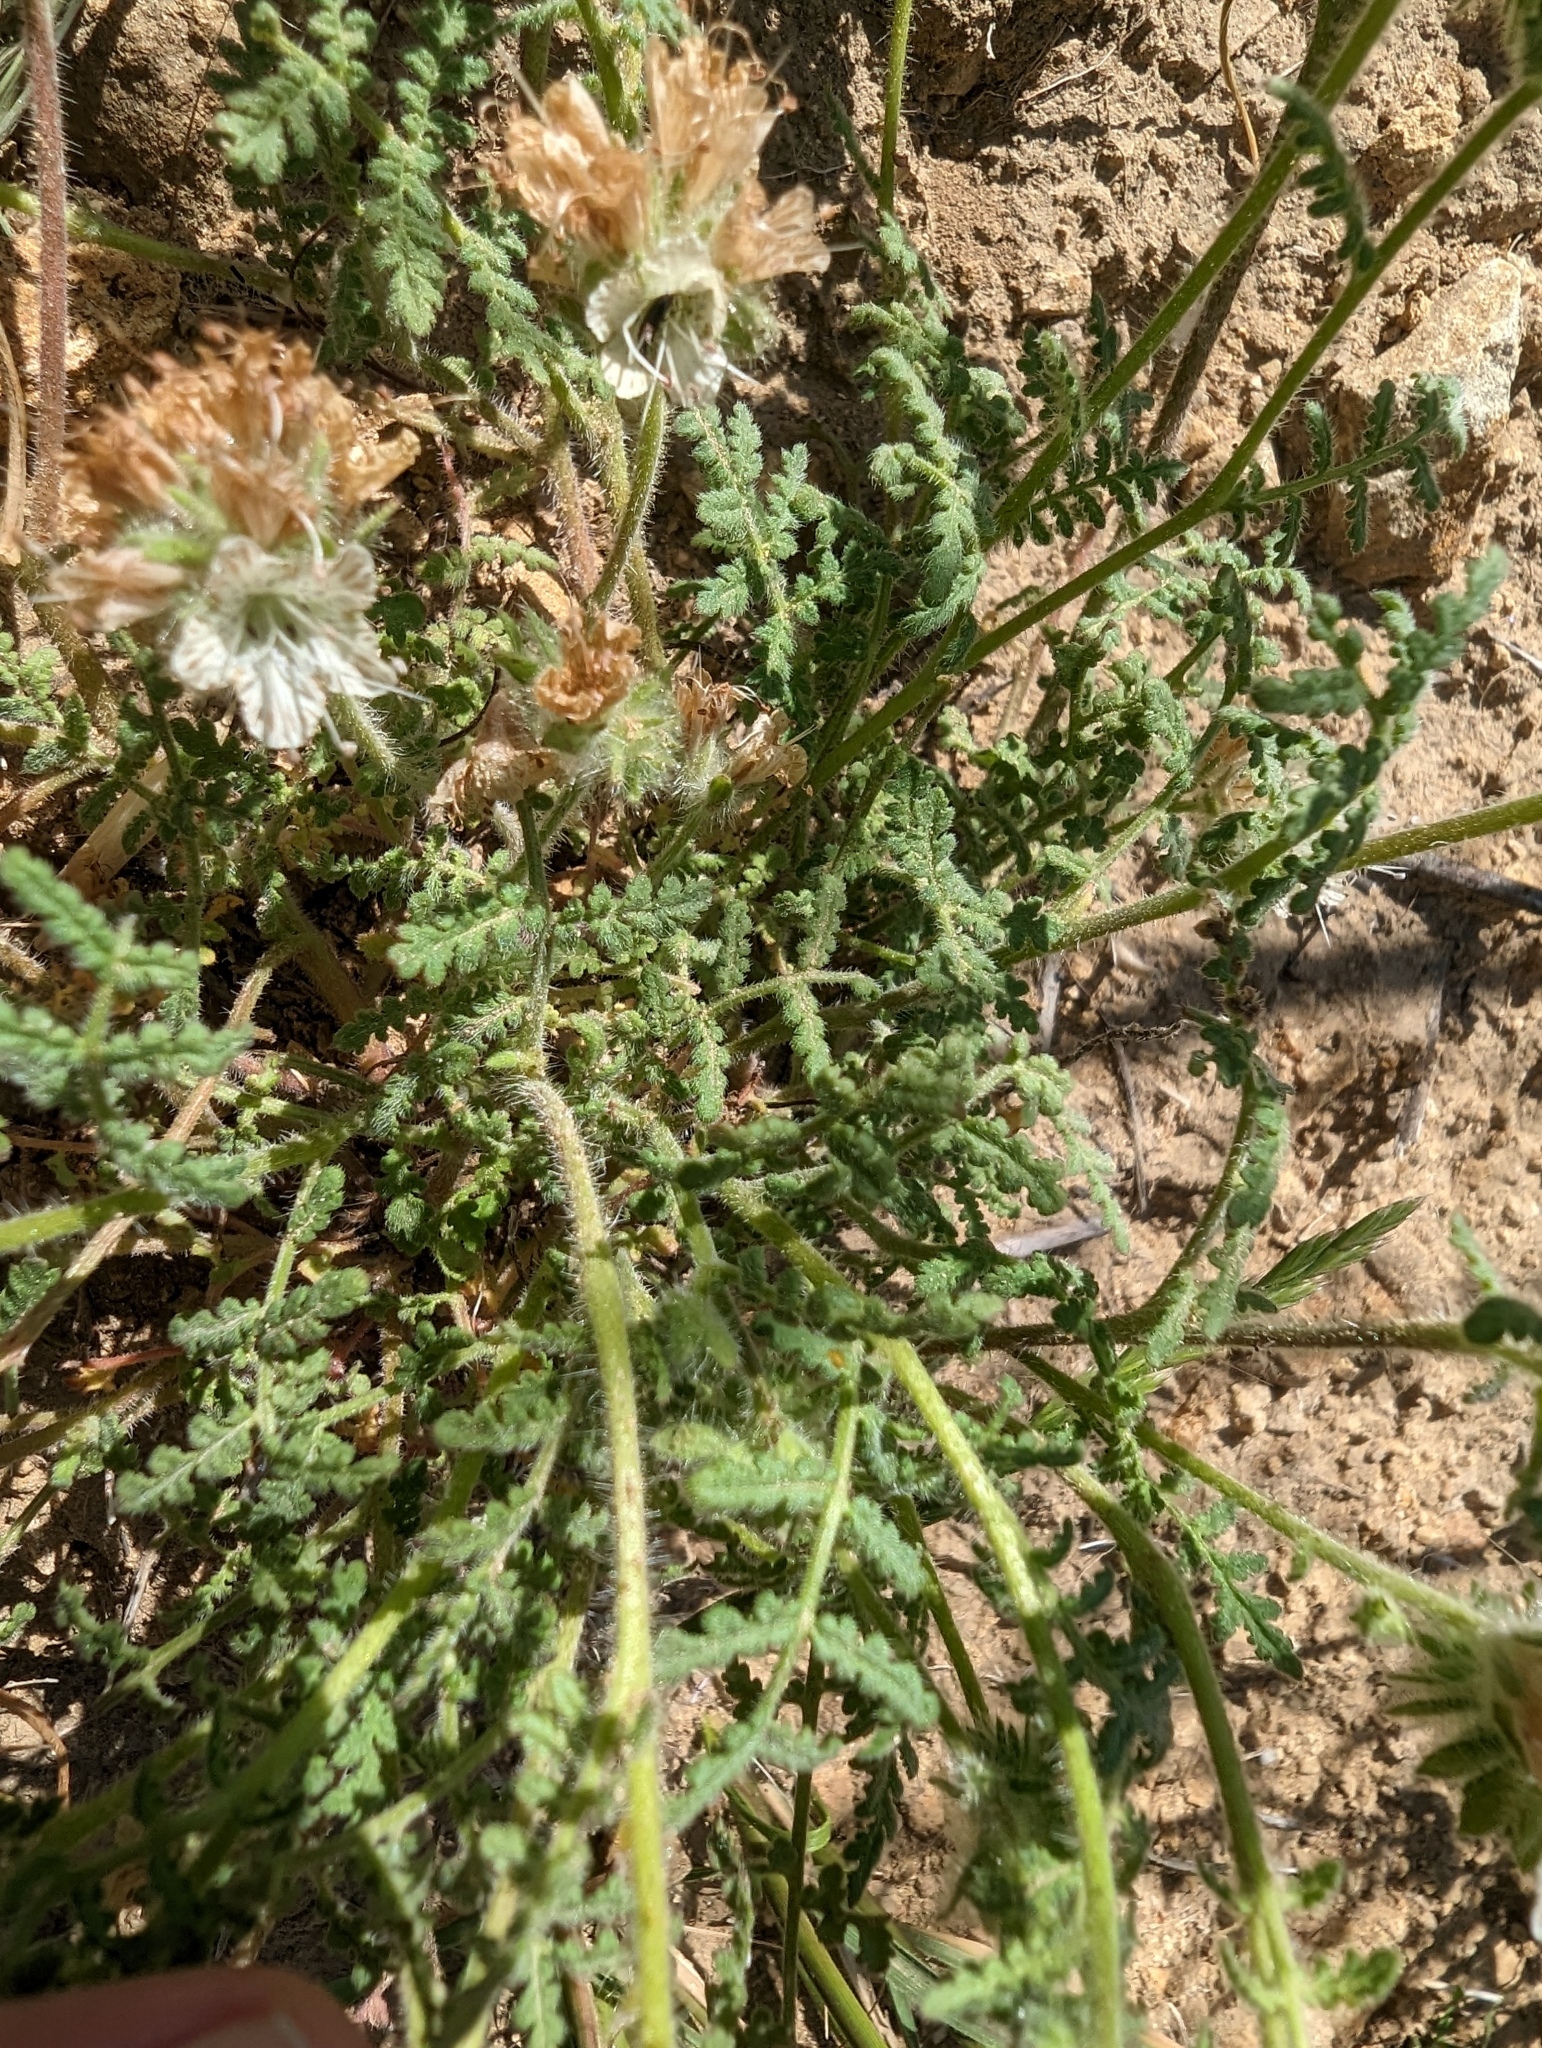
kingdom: Plantae
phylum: Tracheophyta
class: Magnoliopsida
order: Boraginales
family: Hydrophyllaceae
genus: Phacelia
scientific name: Phacelia distans
